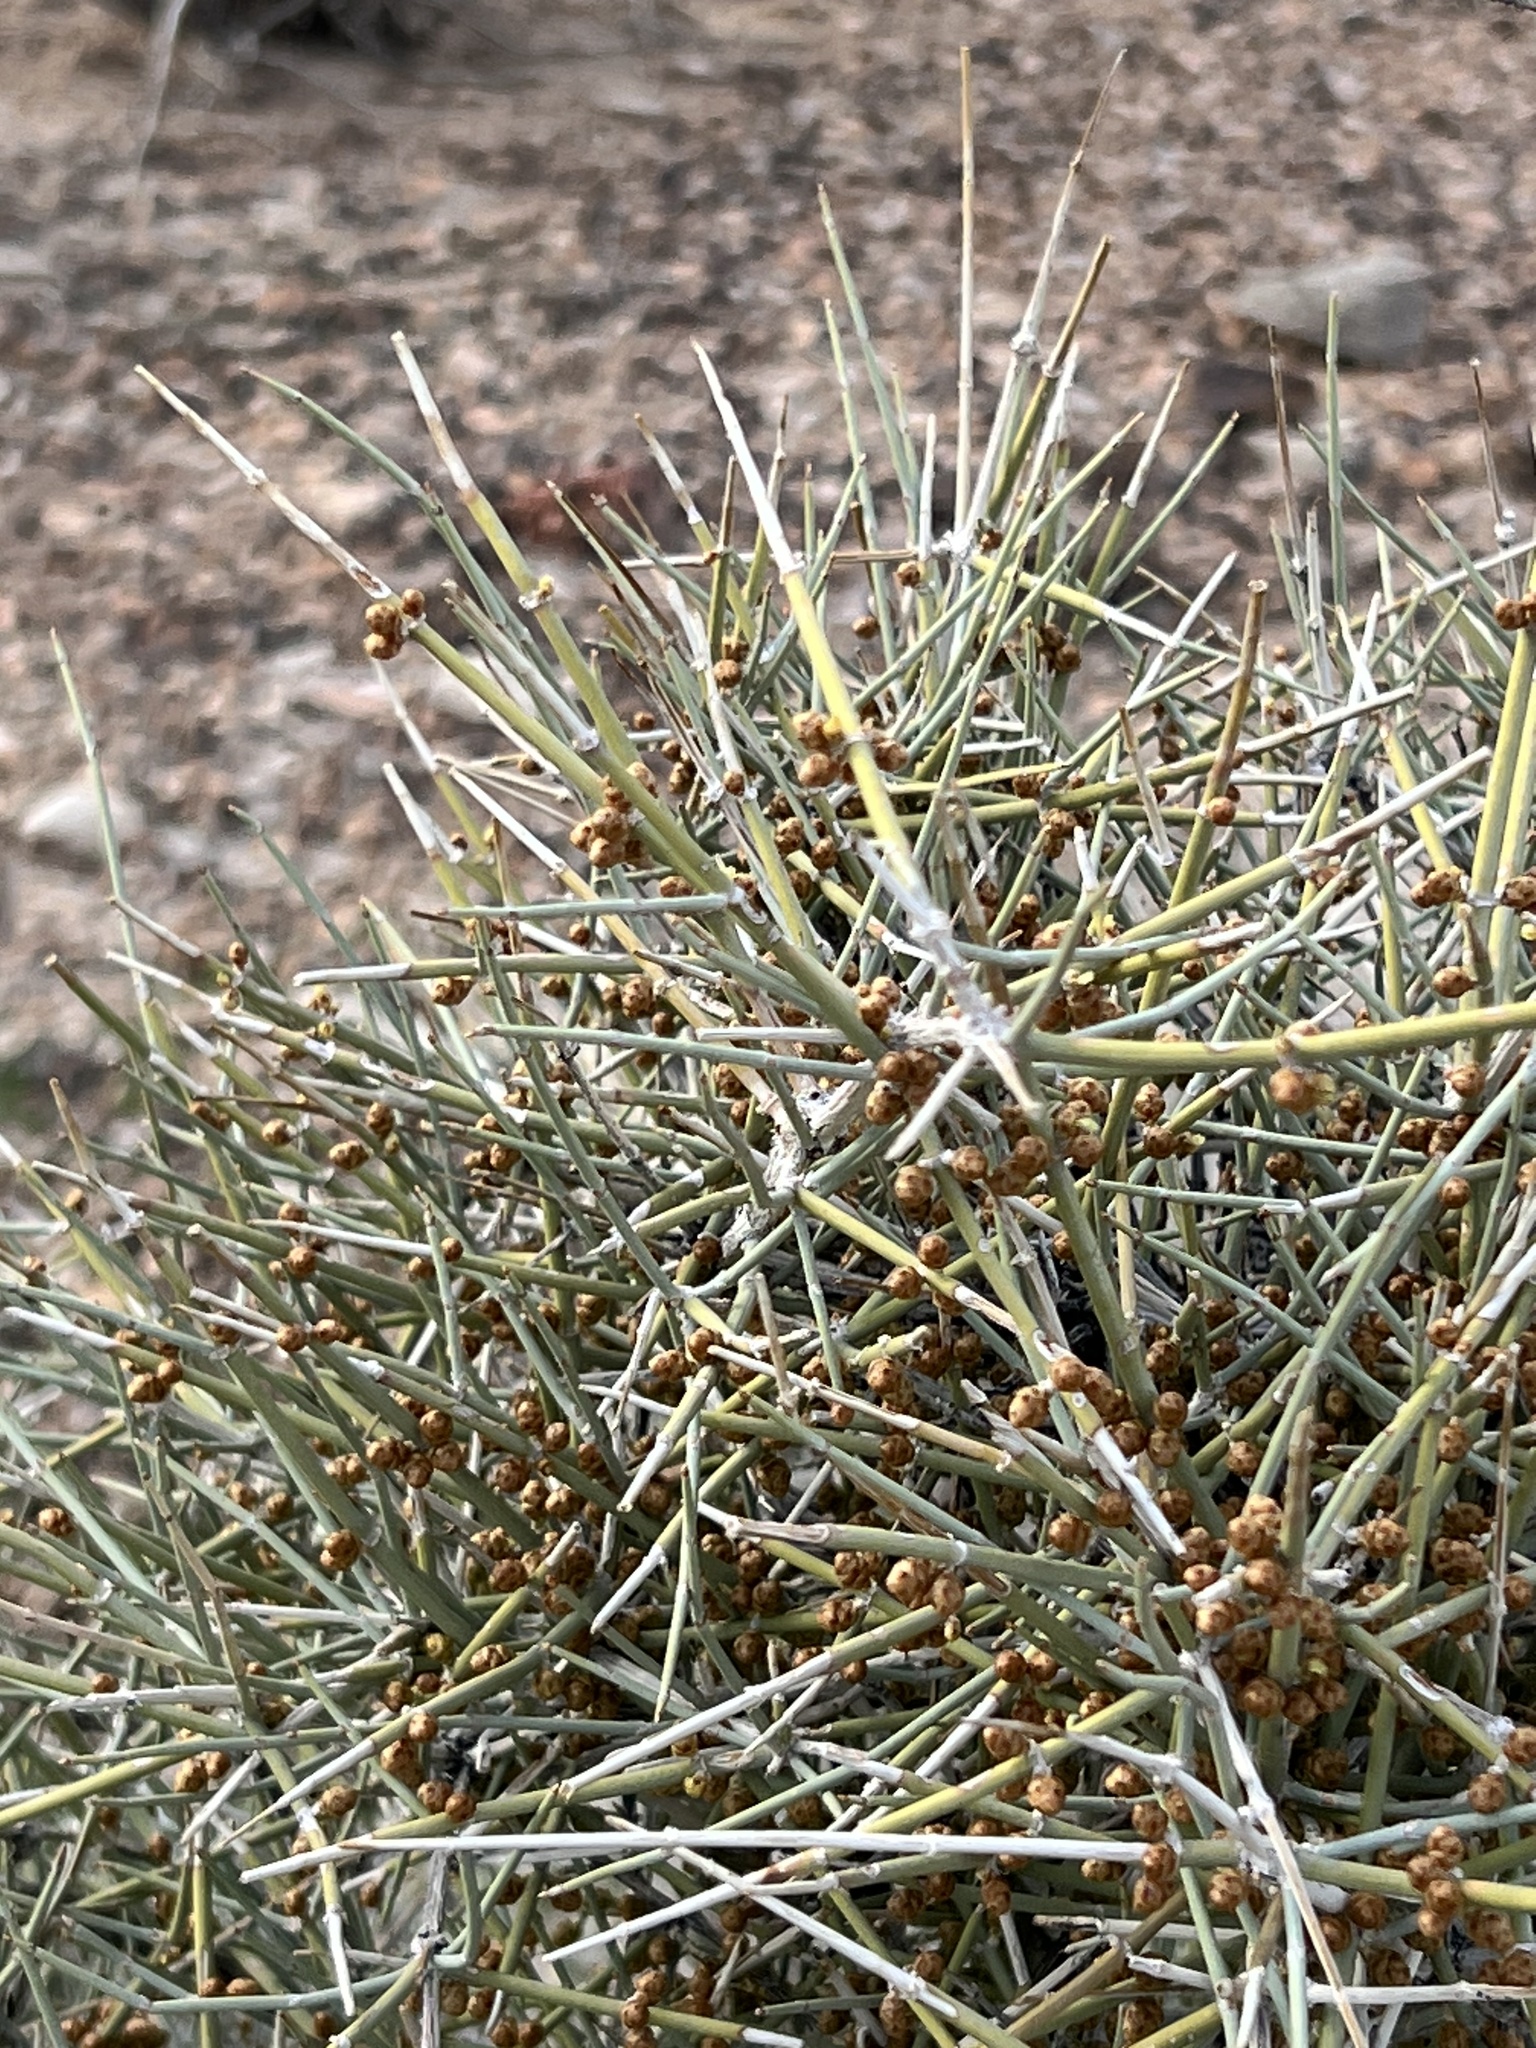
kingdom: Plantae
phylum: Tracheophyta
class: Gnetopsida
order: Ephedrales
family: Ephedraceae
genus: Ephedra
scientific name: Ephedra nevadensis
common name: Gray ephedra
